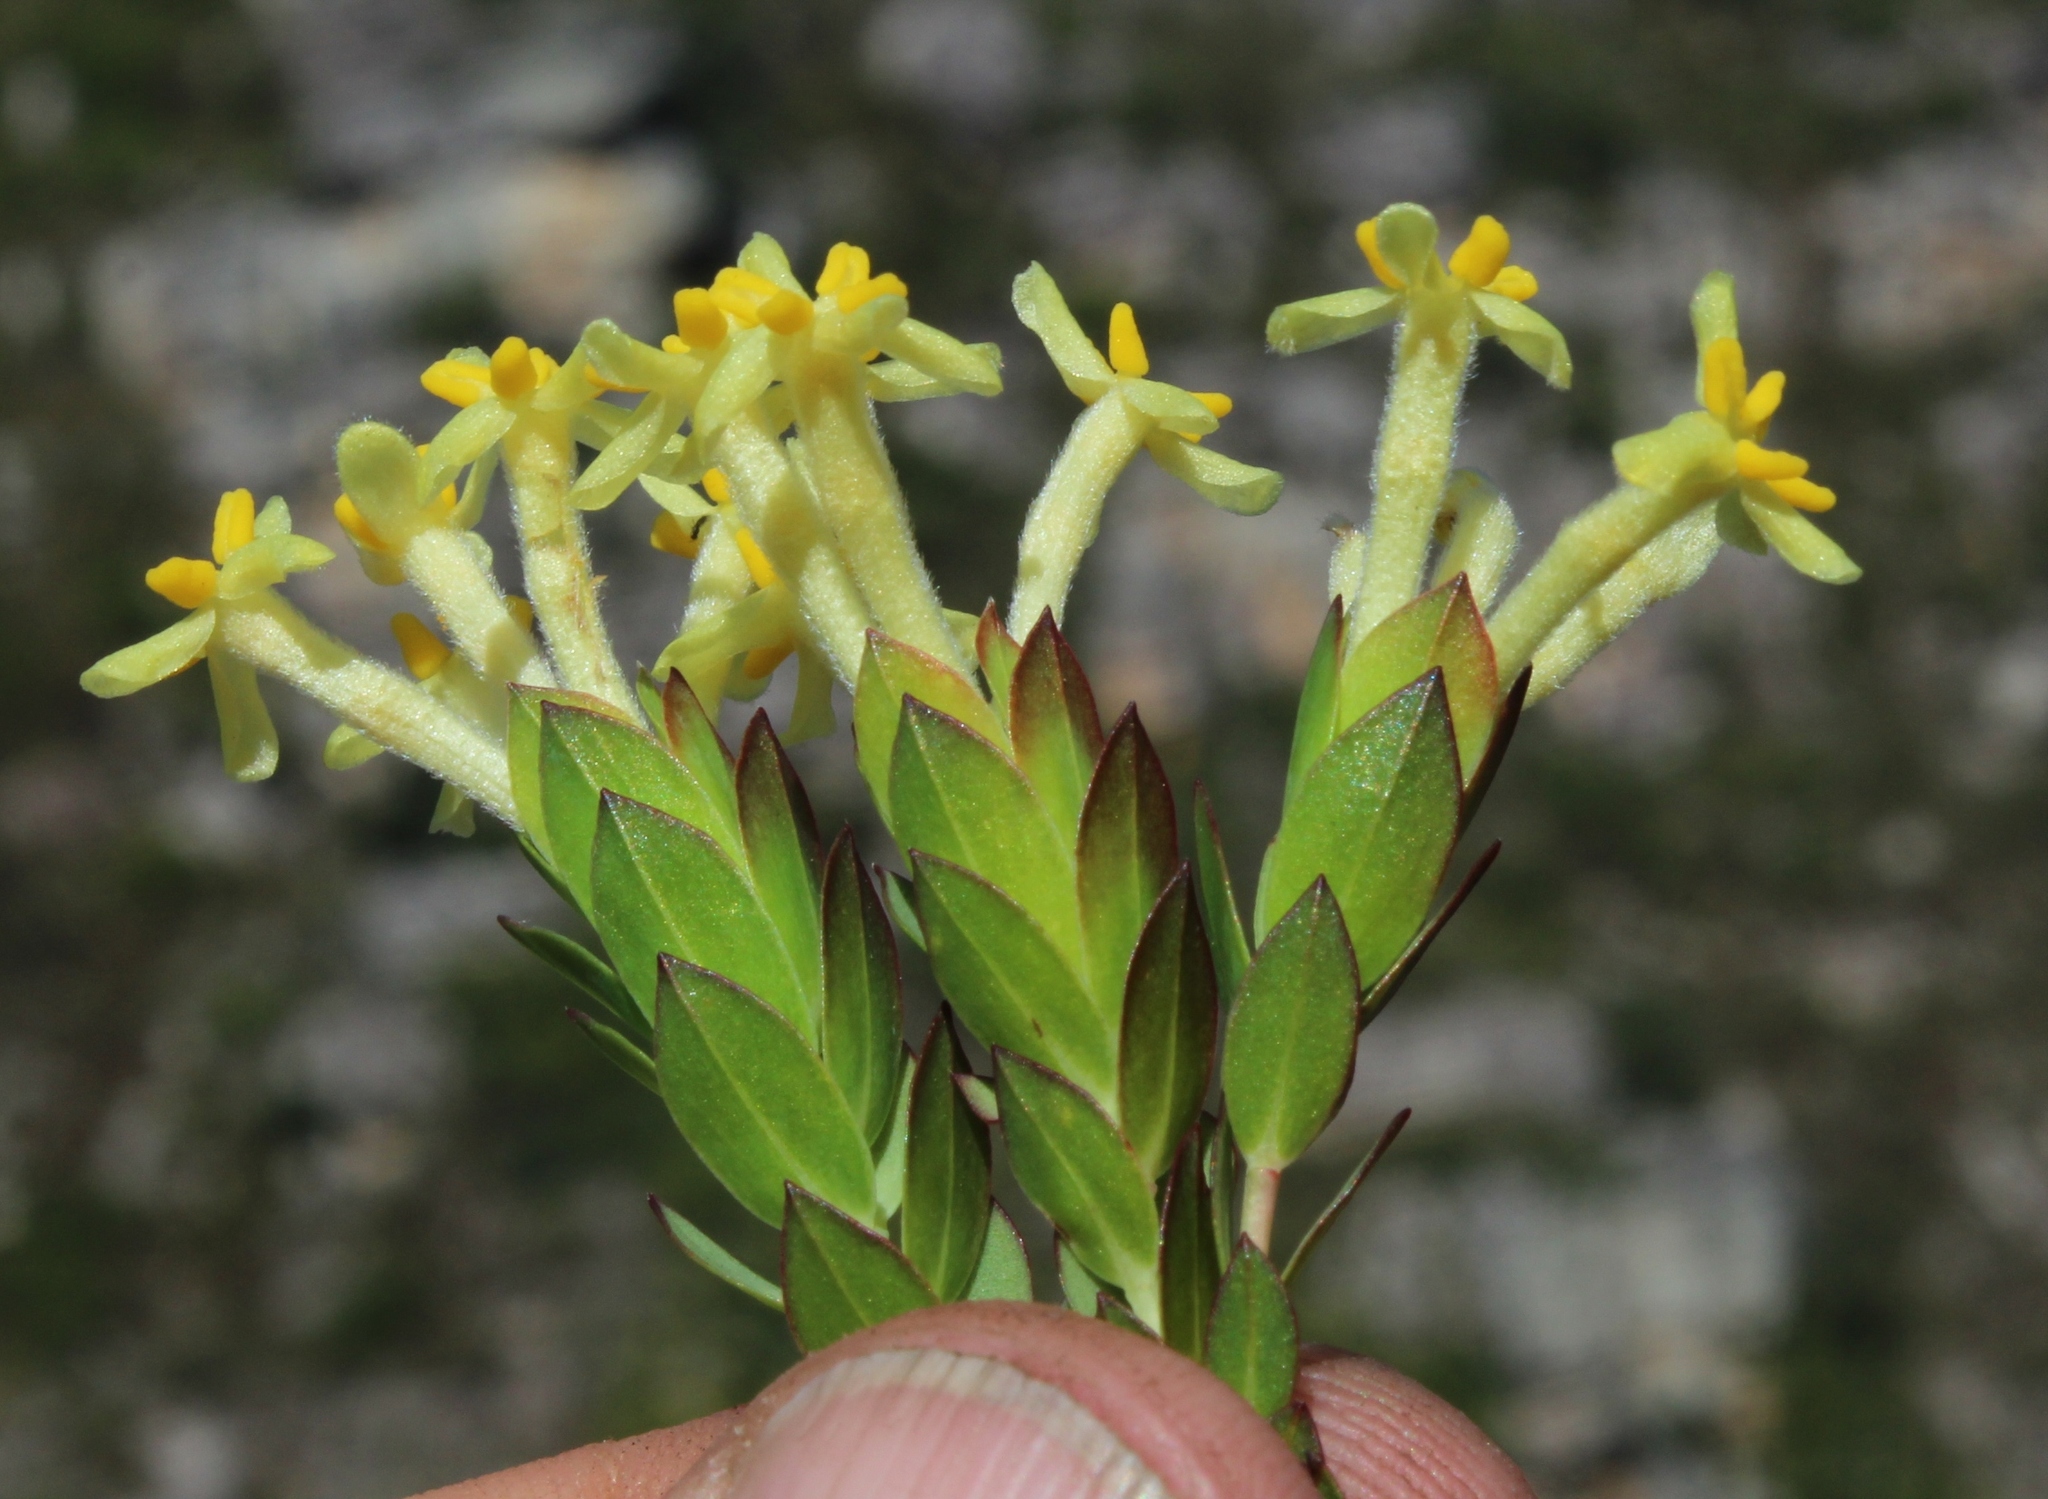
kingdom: Plantae
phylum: Tracheophyta
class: Magnoliopsida
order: Malvales
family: Thymelaeaceae
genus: Gnidia
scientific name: Gnidia oppositifolia
